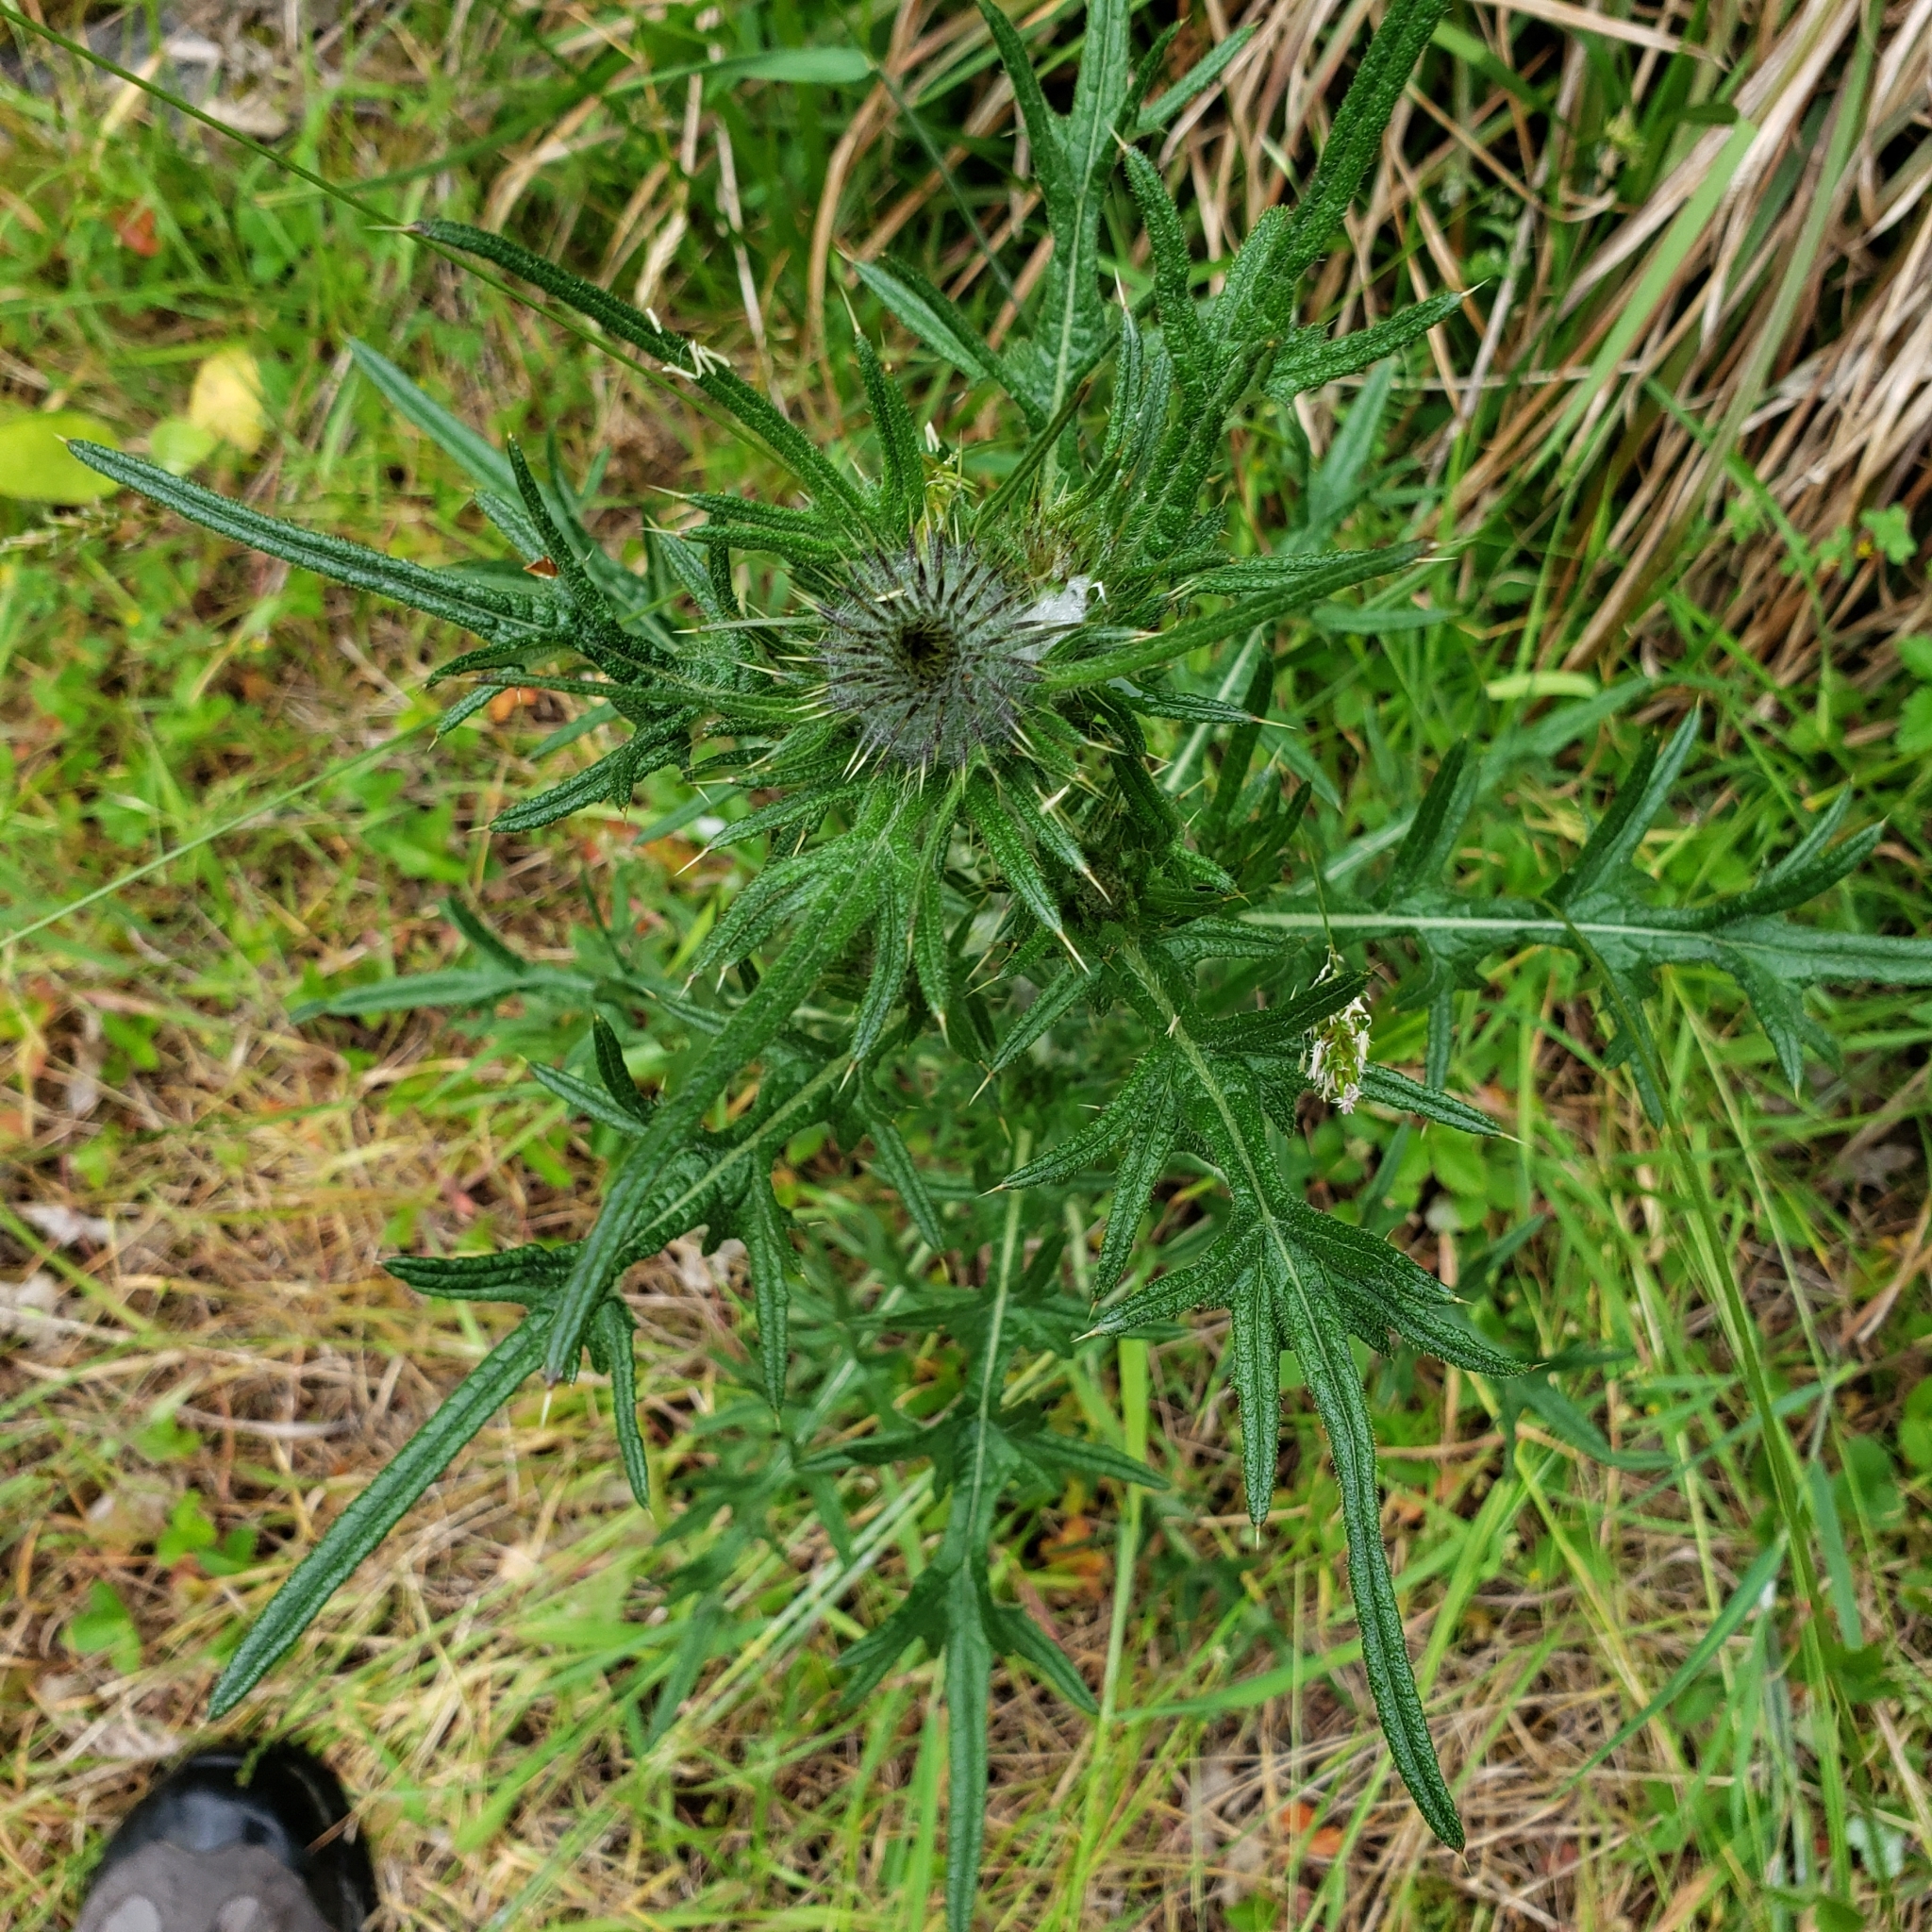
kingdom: Plantae
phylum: Tracheophyta
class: Magnoliopsida
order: Asterales
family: Asteraceae
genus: Cirsium
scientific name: Cirsium vulgare
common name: Bull thistle
